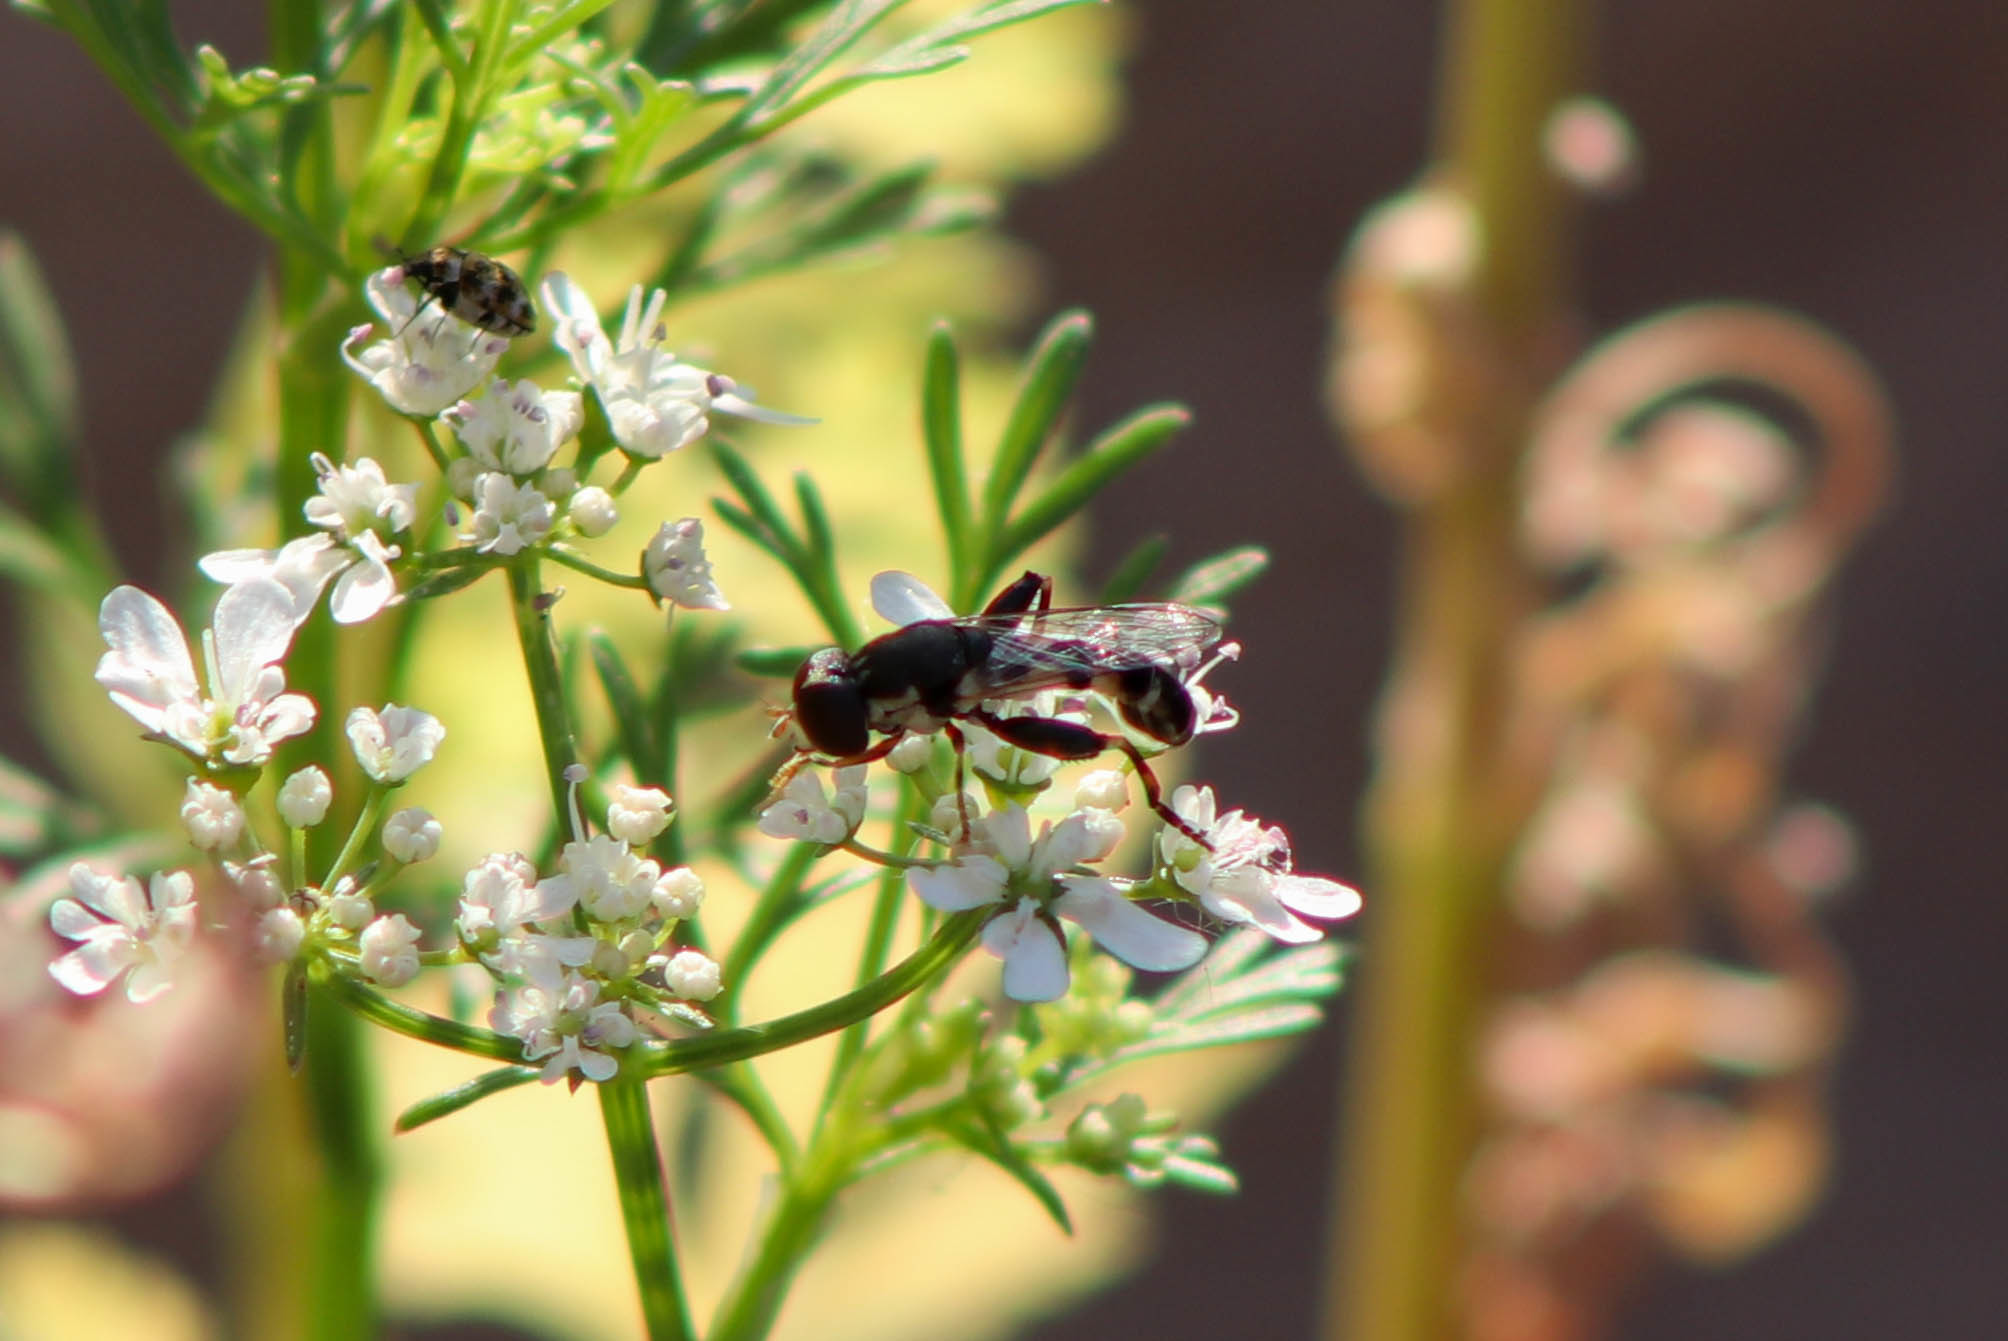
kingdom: Animalia
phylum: Arthropoda
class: Insecta
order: Diptera
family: Syrphidae
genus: Syritta
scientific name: Syritta pipiens
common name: Hover fly
